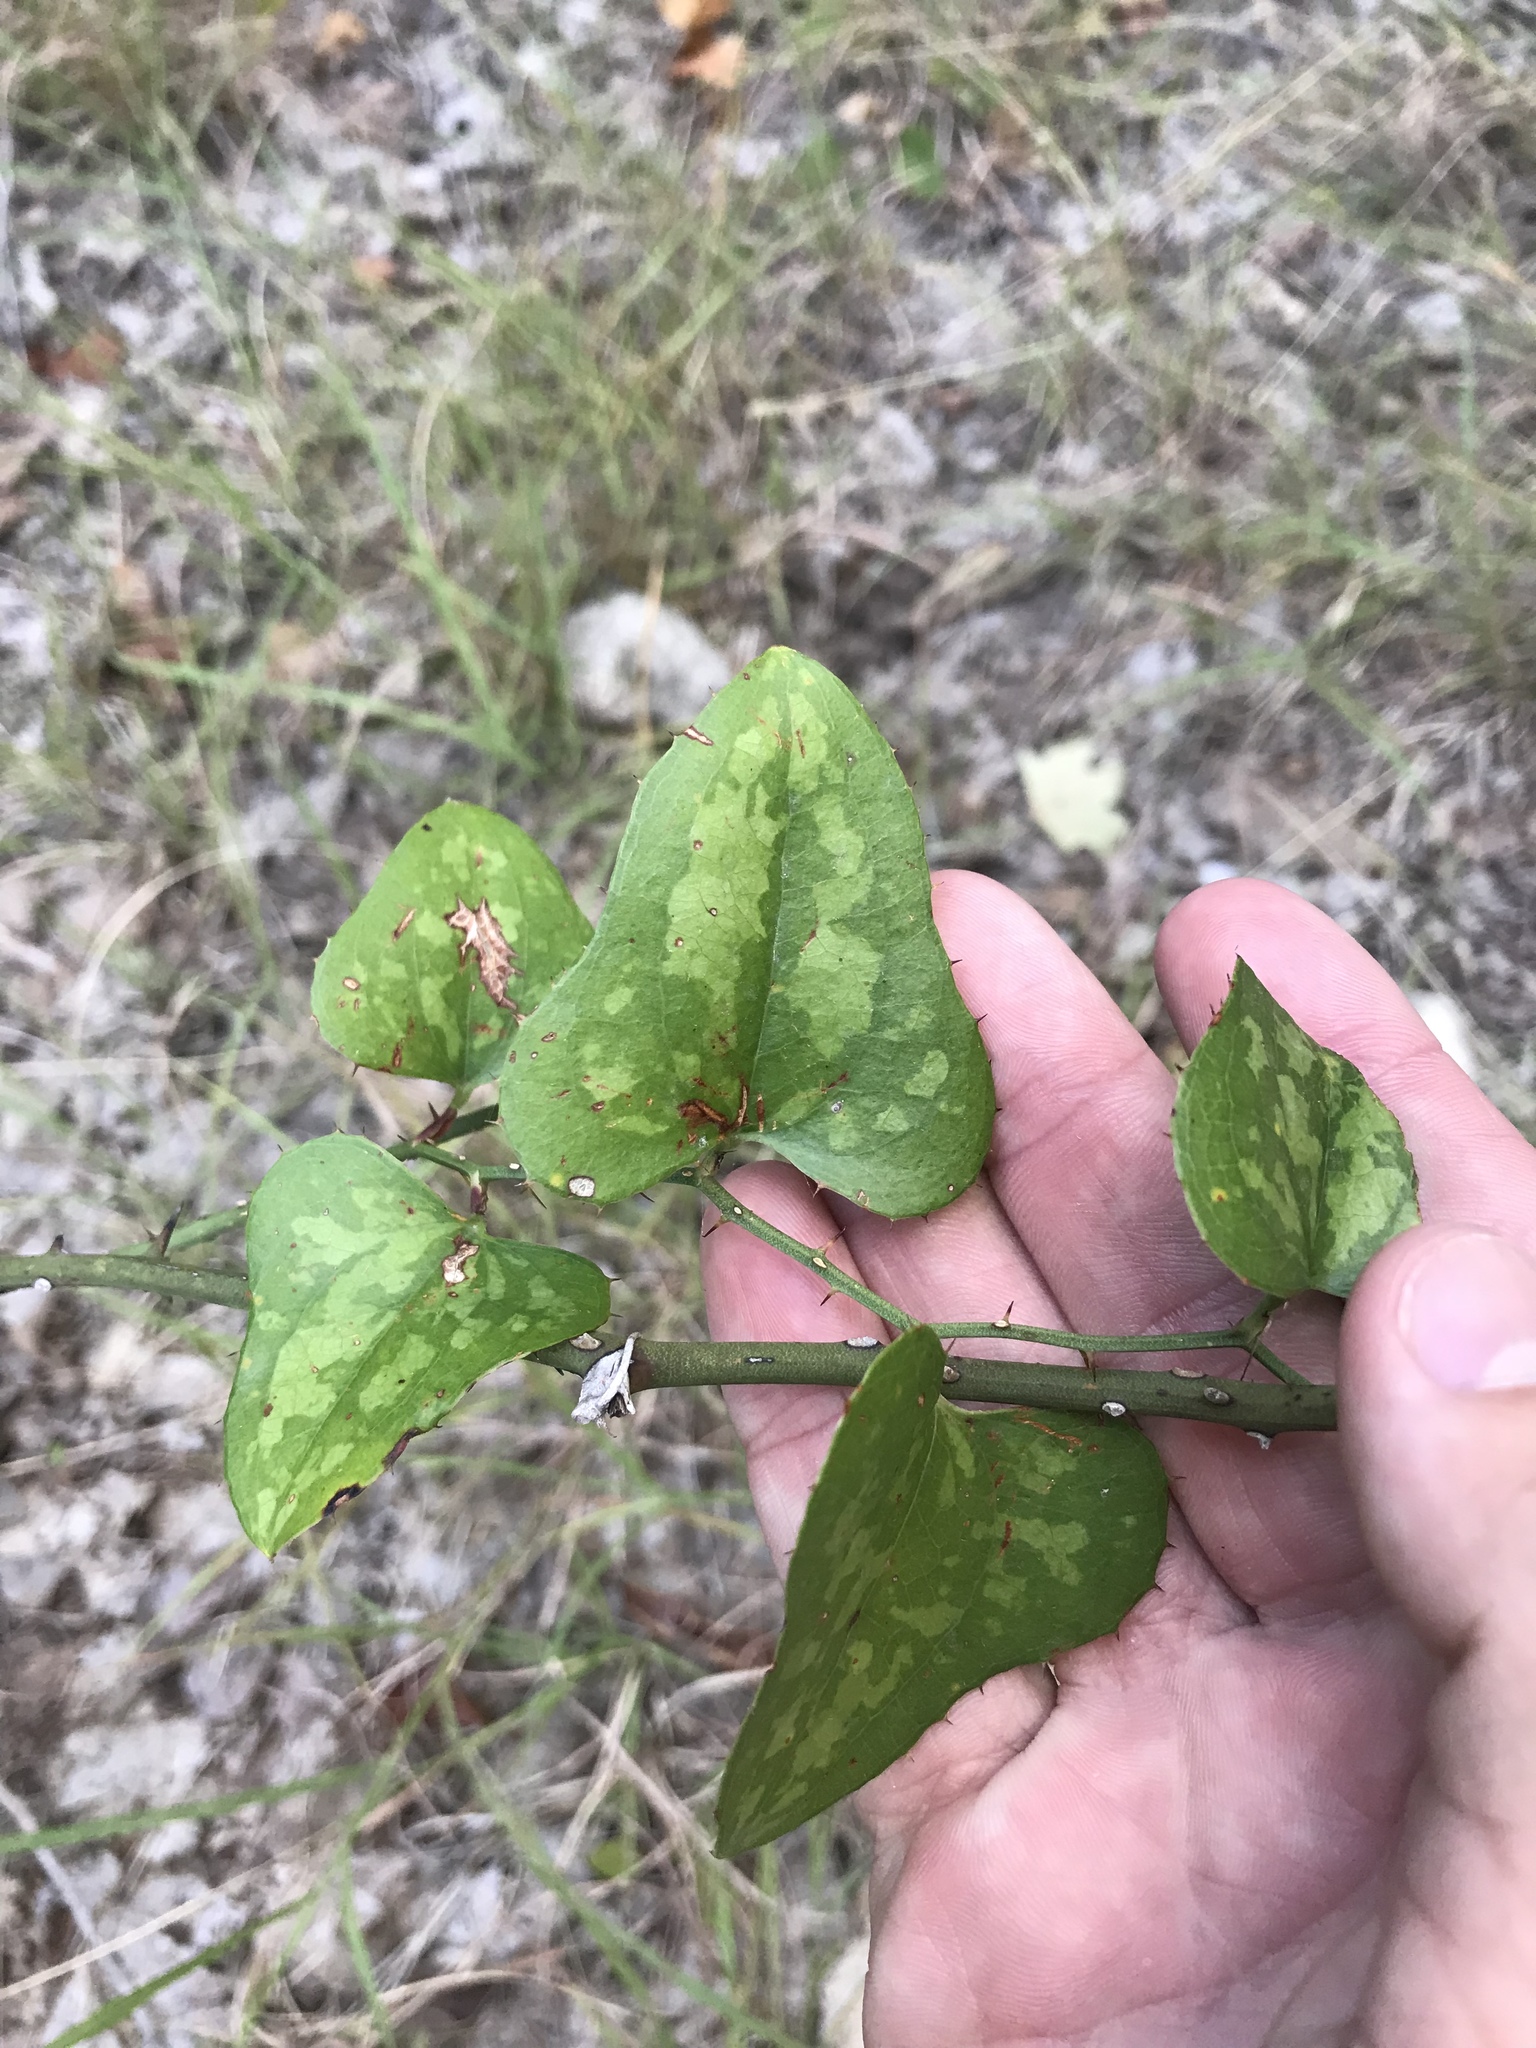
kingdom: Plantae
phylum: Tracheophyta
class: Liliopsida
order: Liliales
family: Smilacaceae
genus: Smilax
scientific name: Smilax bona-nox
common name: Catbrier
